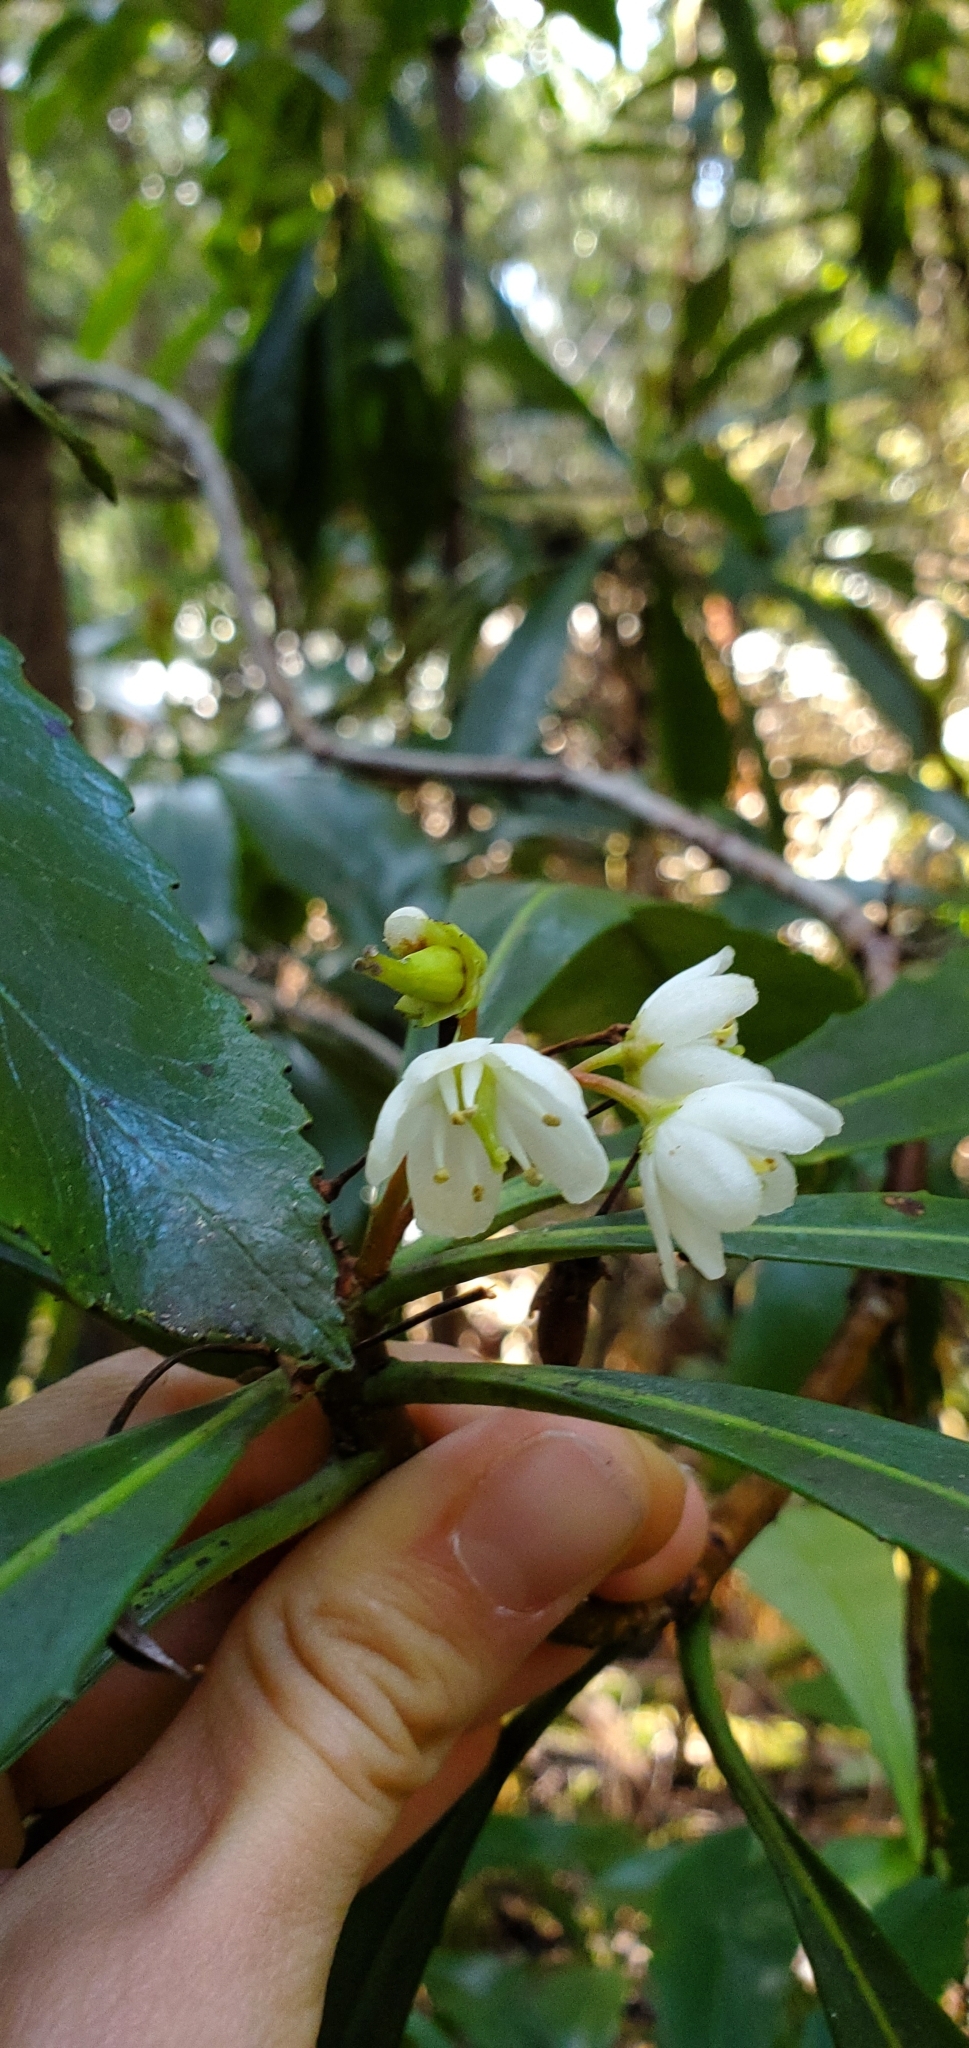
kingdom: Plantae
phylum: Tracheophyta
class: Magnoliopsida
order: Escalloniales
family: Escalloniaceae
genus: Anopterus
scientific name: Anopterus glandulosus
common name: Tasmanian-laurel
